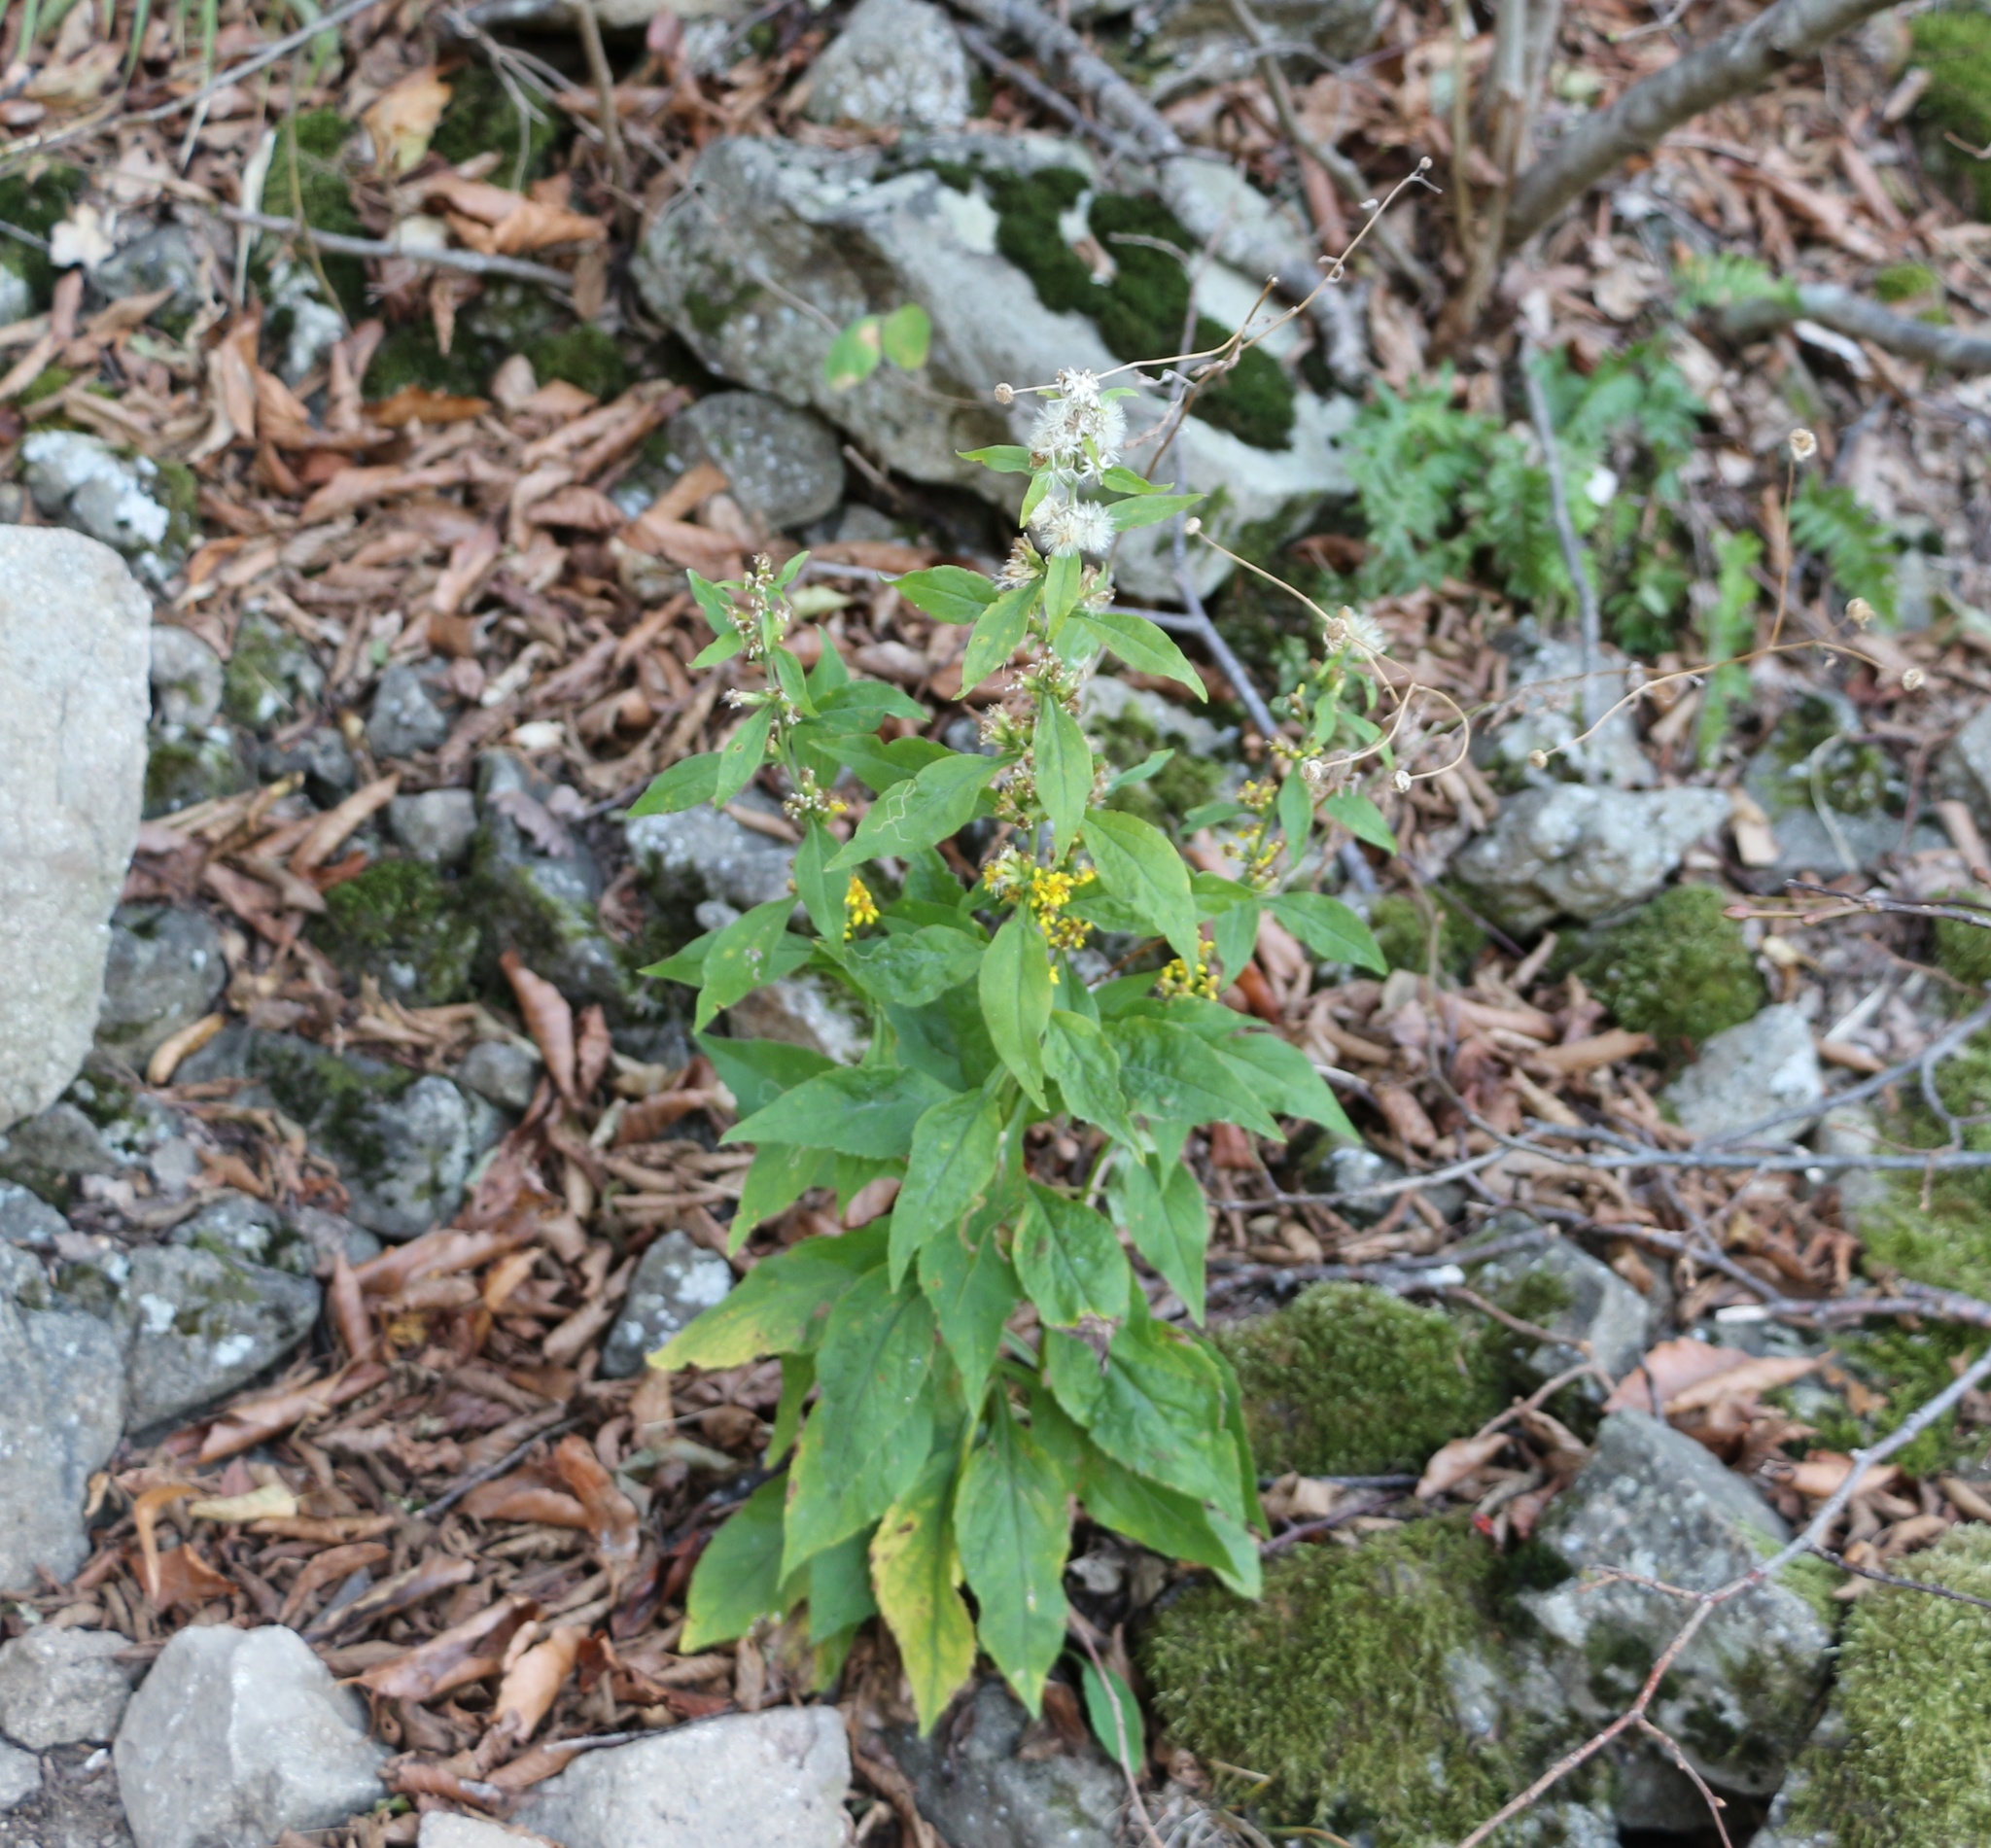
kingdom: Plantae
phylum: Tracheophyta
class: Magnoliopsida
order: Asterales
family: Asteraceae
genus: Solidago
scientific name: Solidago virgaurea
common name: Goldenrod
